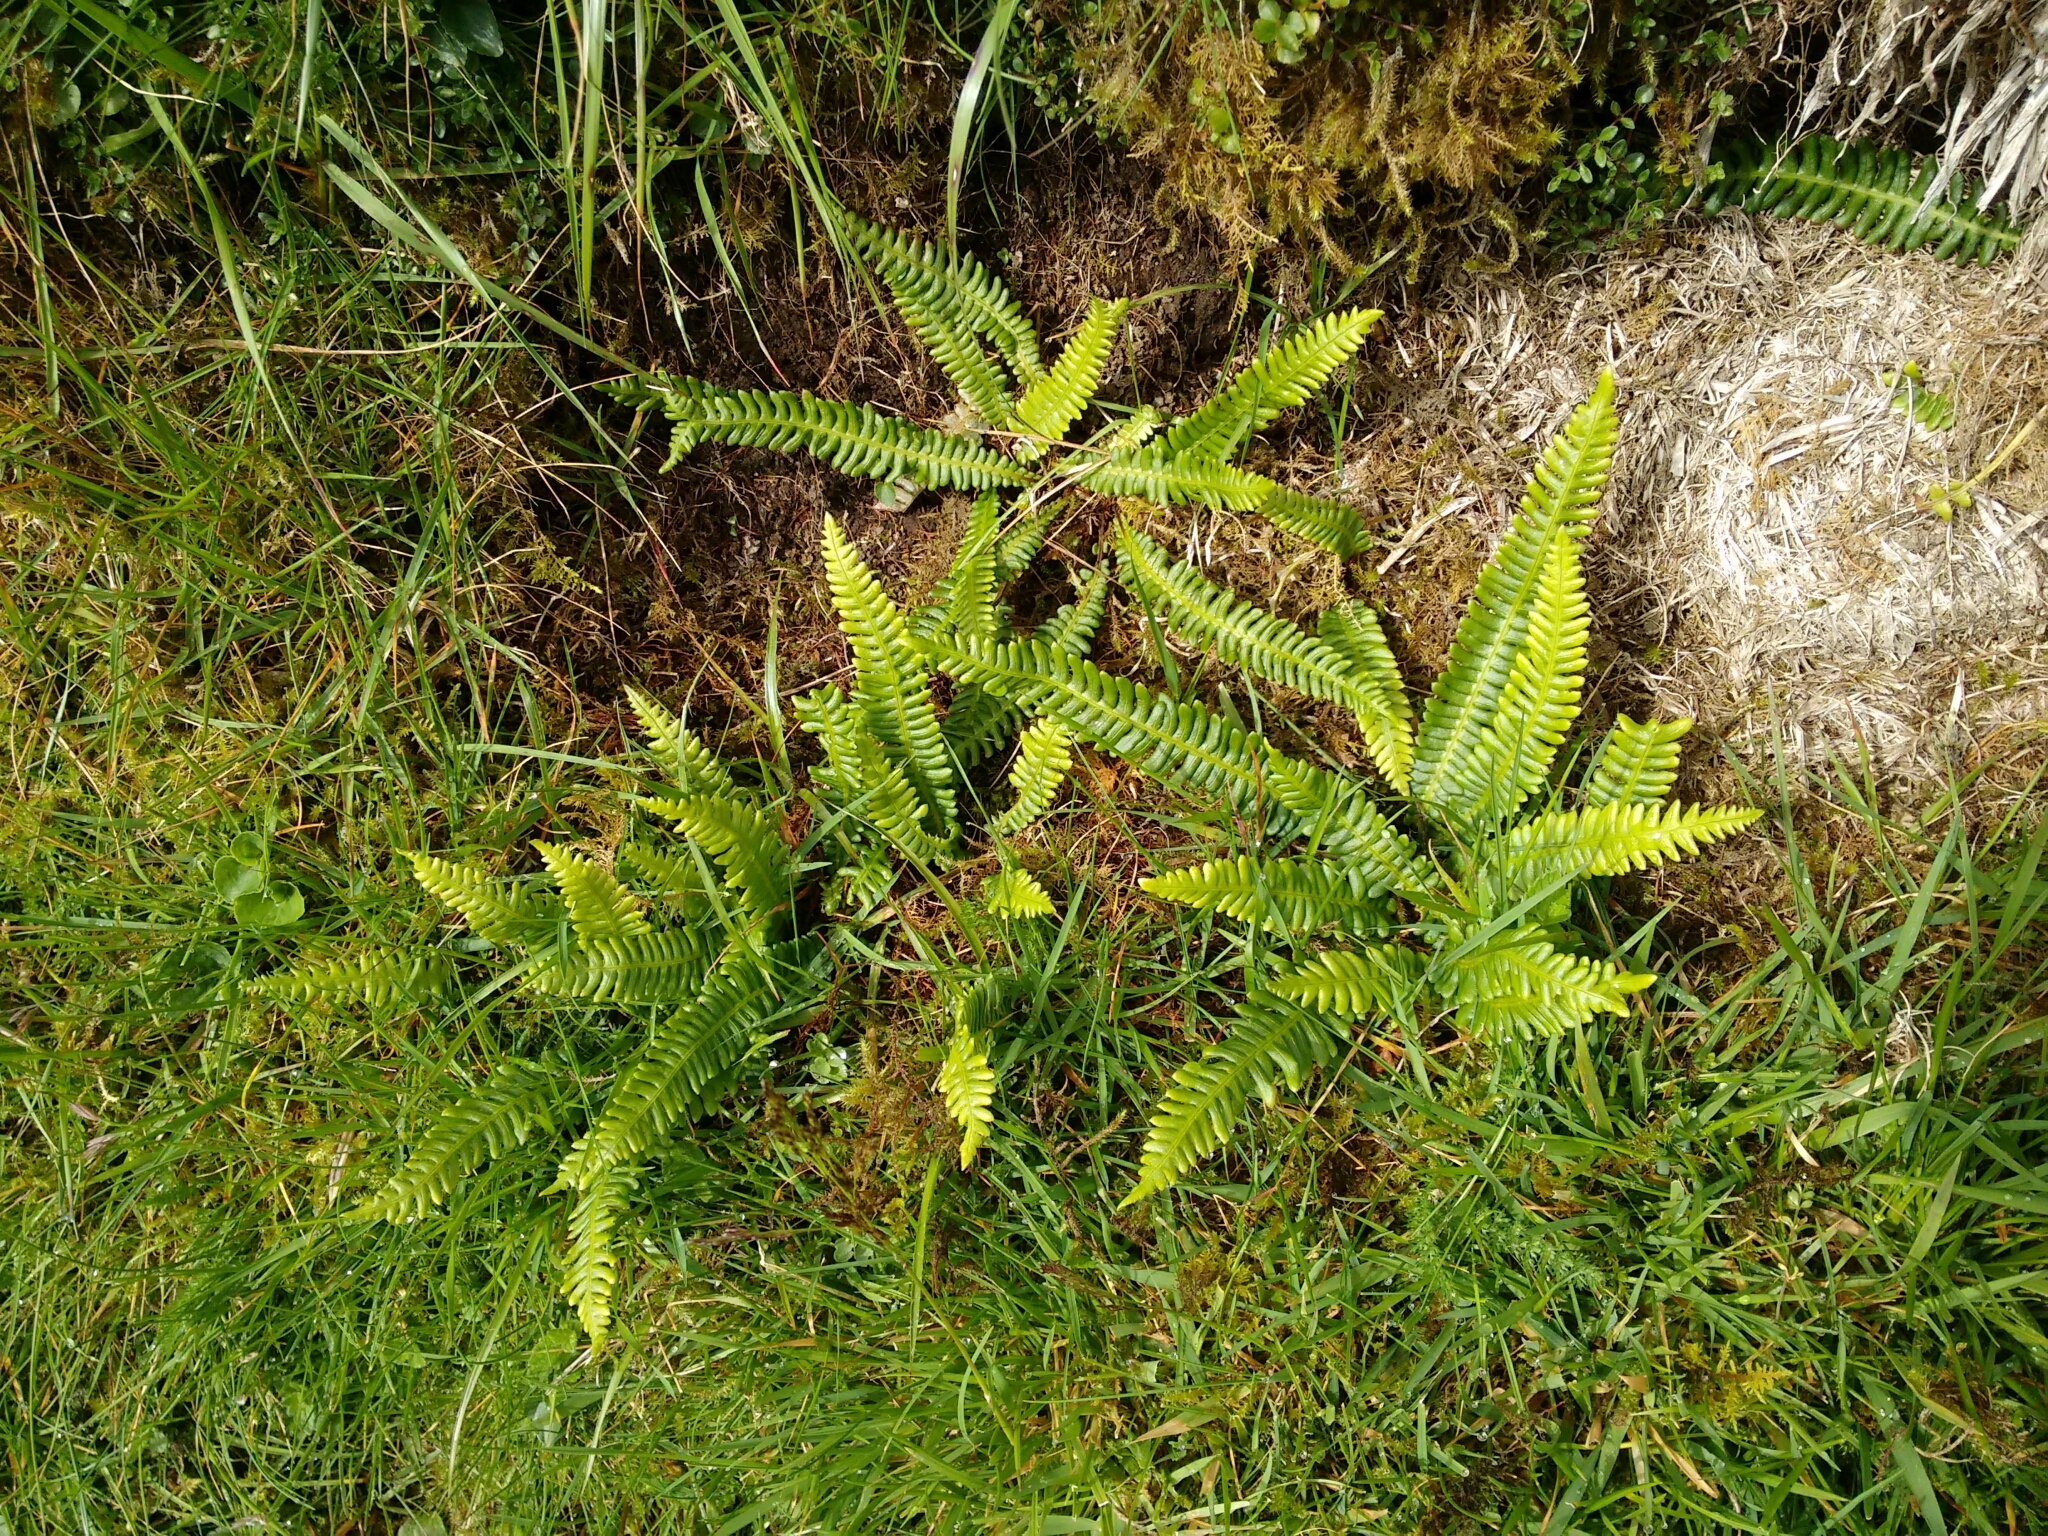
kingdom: Plantae
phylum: Tracheophyta
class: Polypodiopsida
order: Polypodiales
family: Blechnaceae
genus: Struthiopteris
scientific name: Struthiopteris spicant
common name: Deer fern
